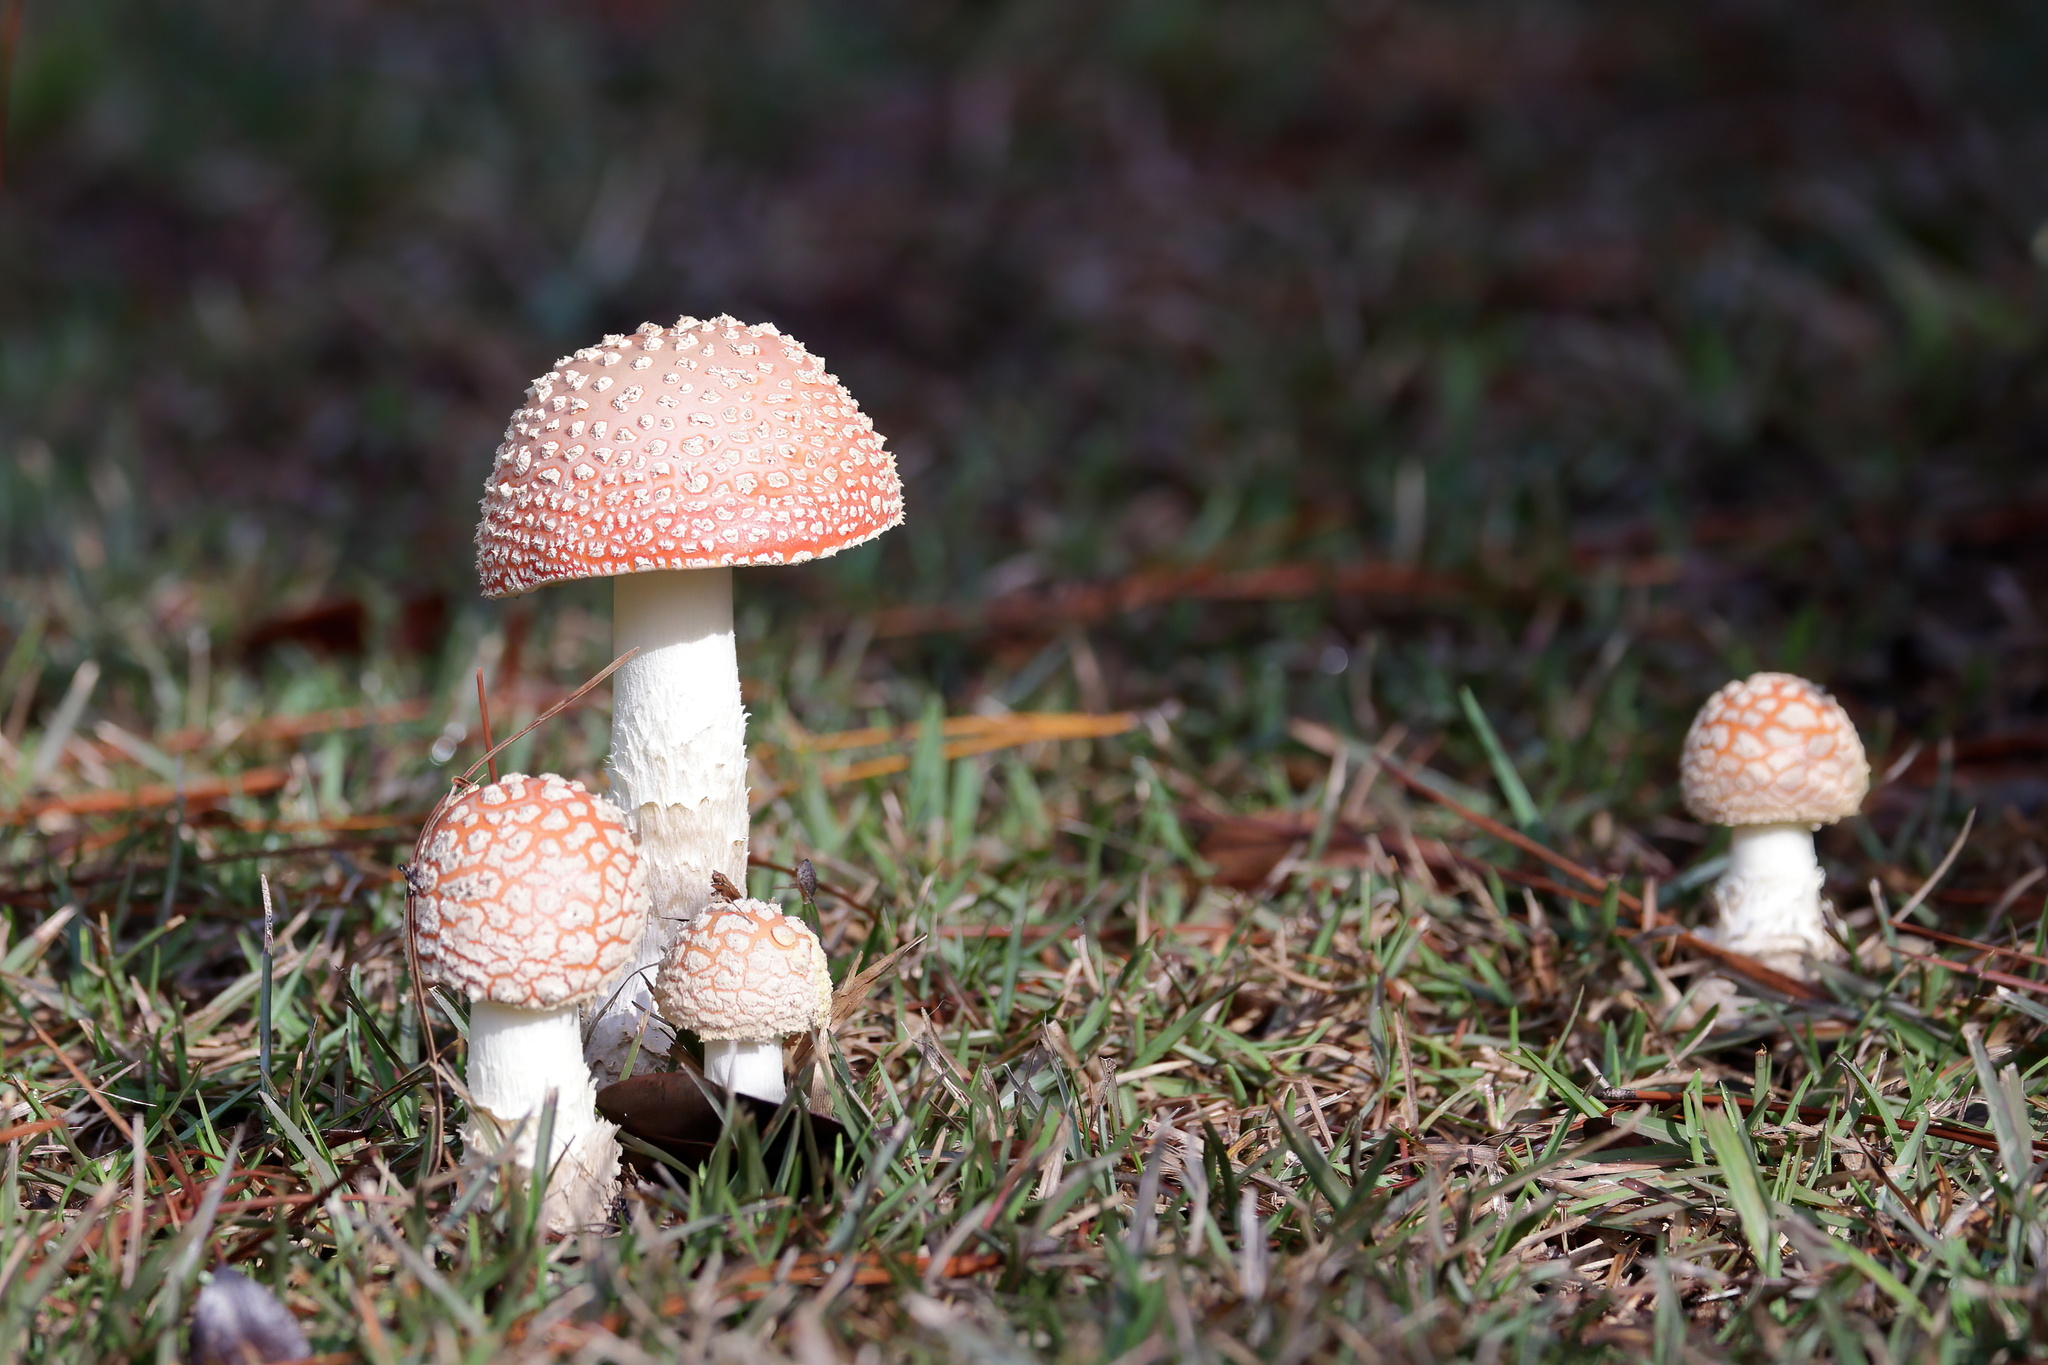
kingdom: Fungi
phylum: Basidiomycota
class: Agaricomycetes
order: Agaricales
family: Amanitaceae
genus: Amanita
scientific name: Amanita persicina
